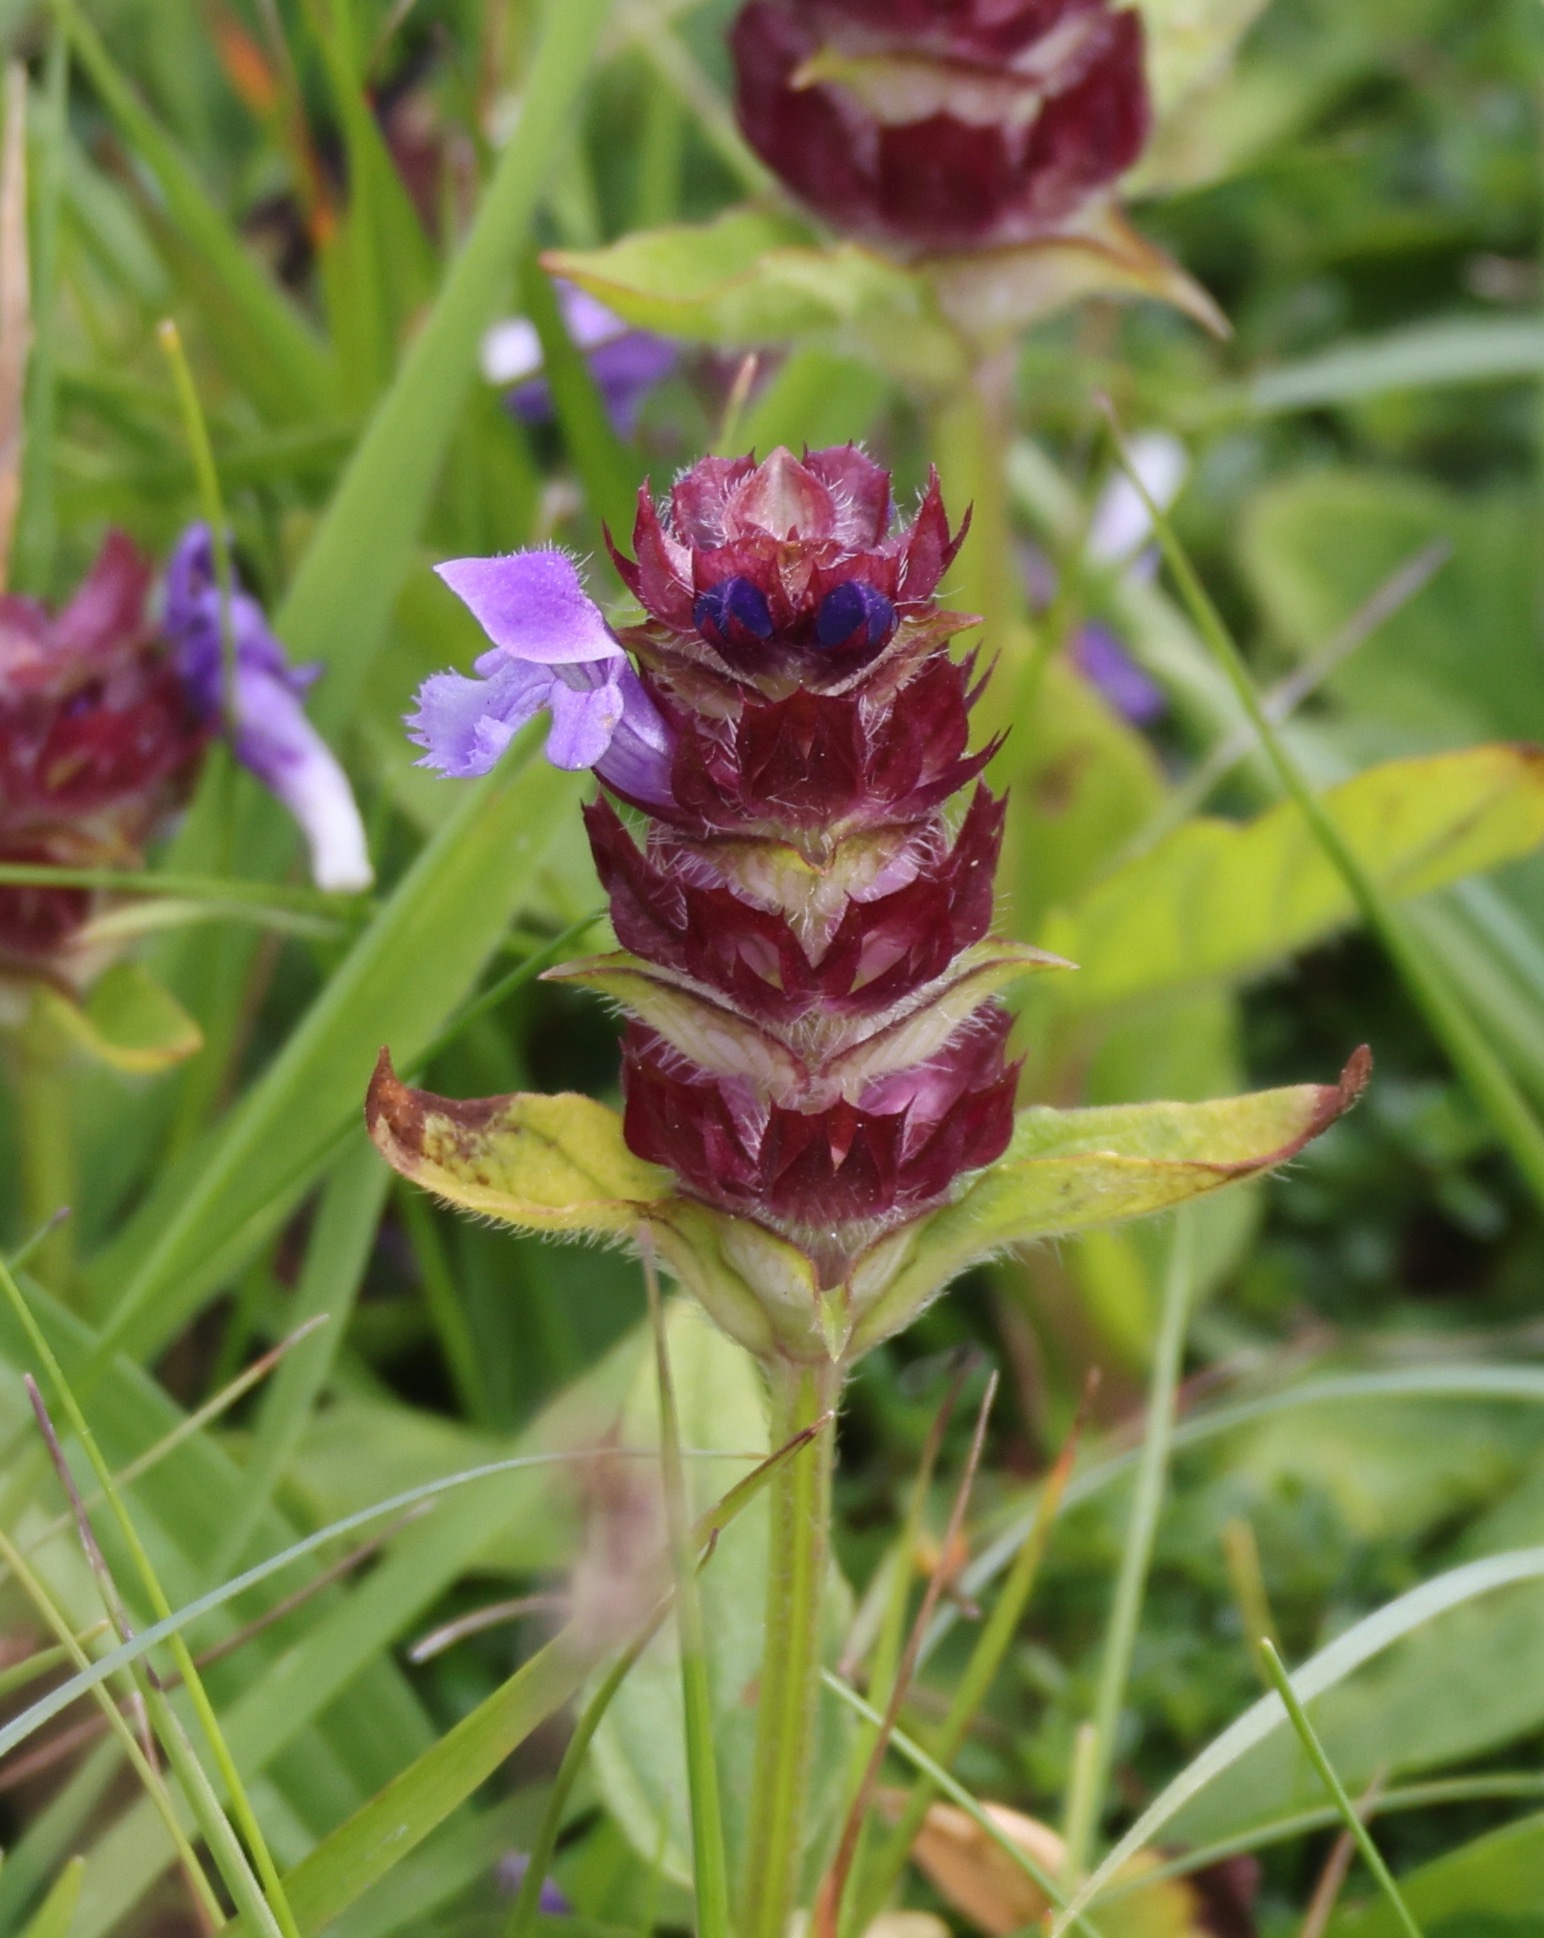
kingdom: Plantae
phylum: Tracheophyta
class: Magnoliopsida
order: Lamiales
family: Lamiaceae
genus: Prunella
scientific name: Prunella vulgaris
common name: Heal-all
